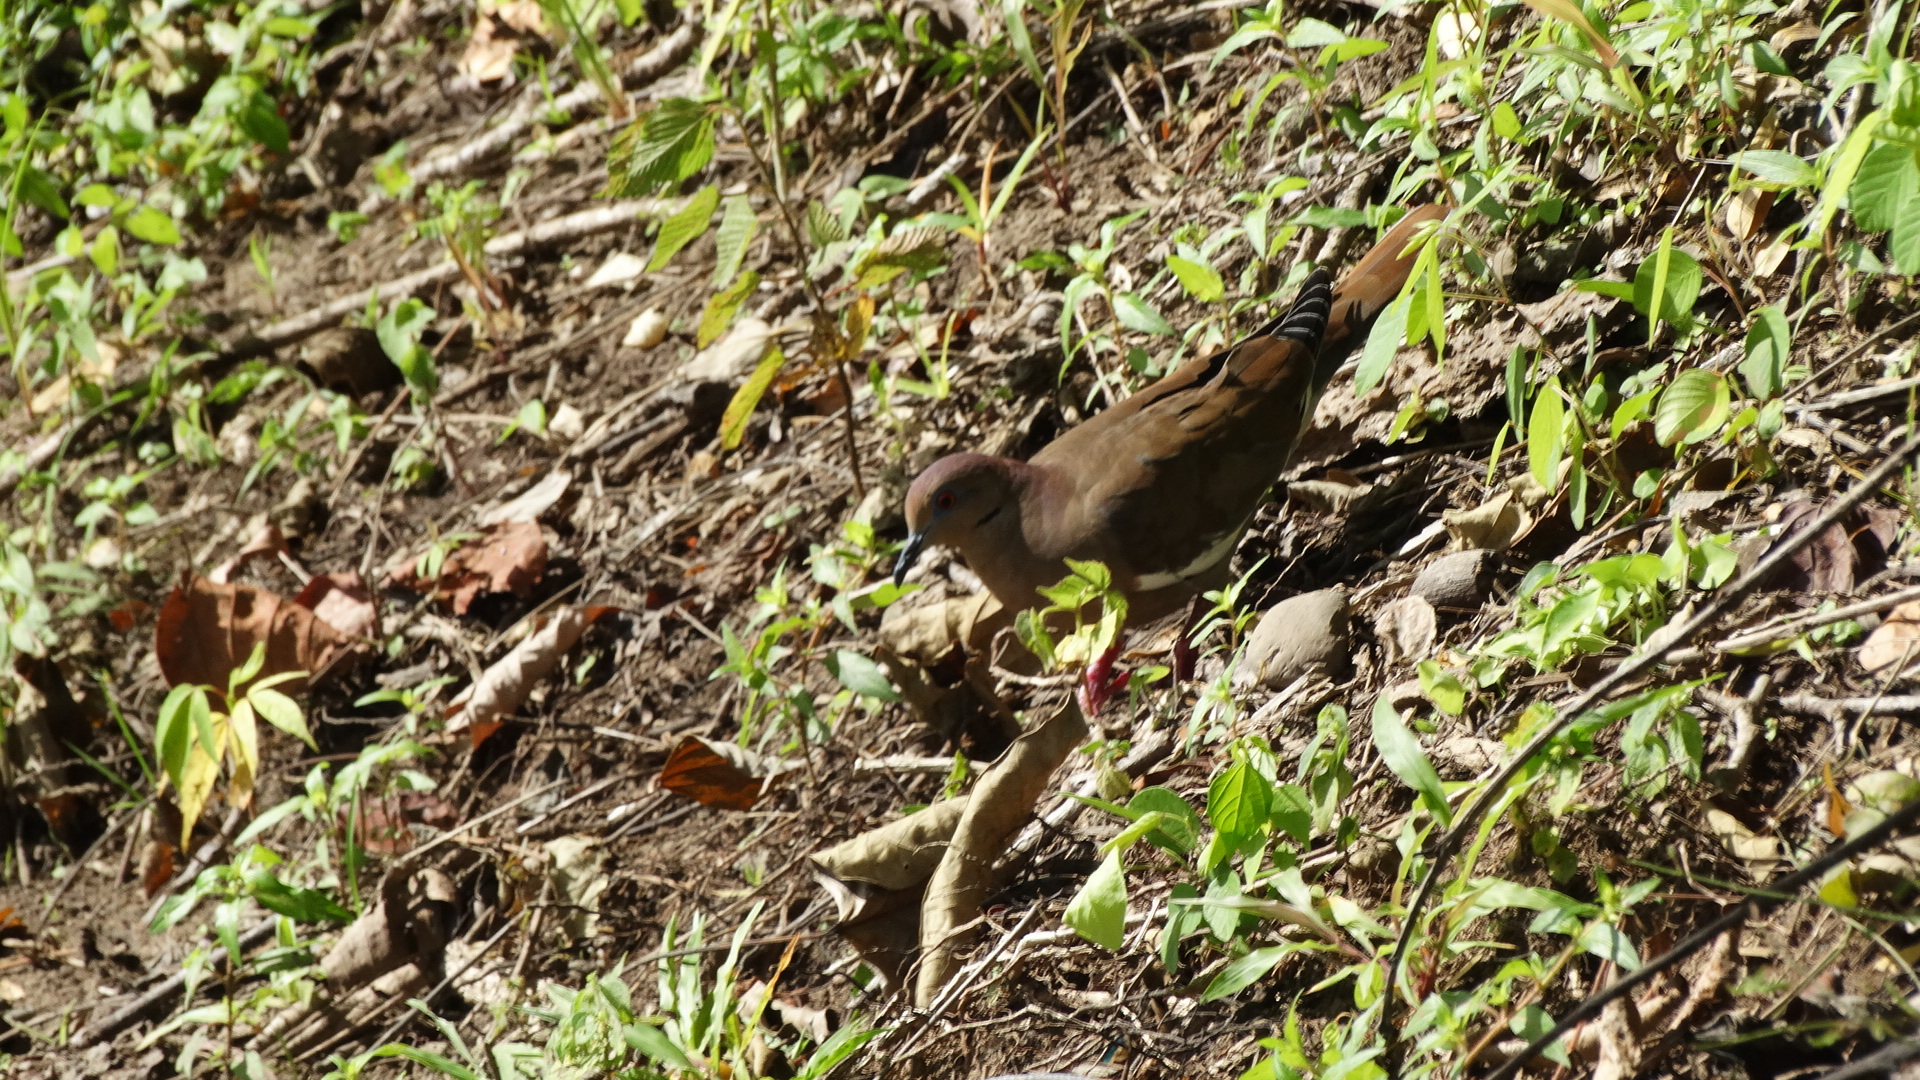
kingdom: Animalia
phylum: Chordata
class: Aves
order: Columbiformes
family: Columbidae
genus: Zenaida
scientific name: Zenaida asiatica
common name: White-winged dove
